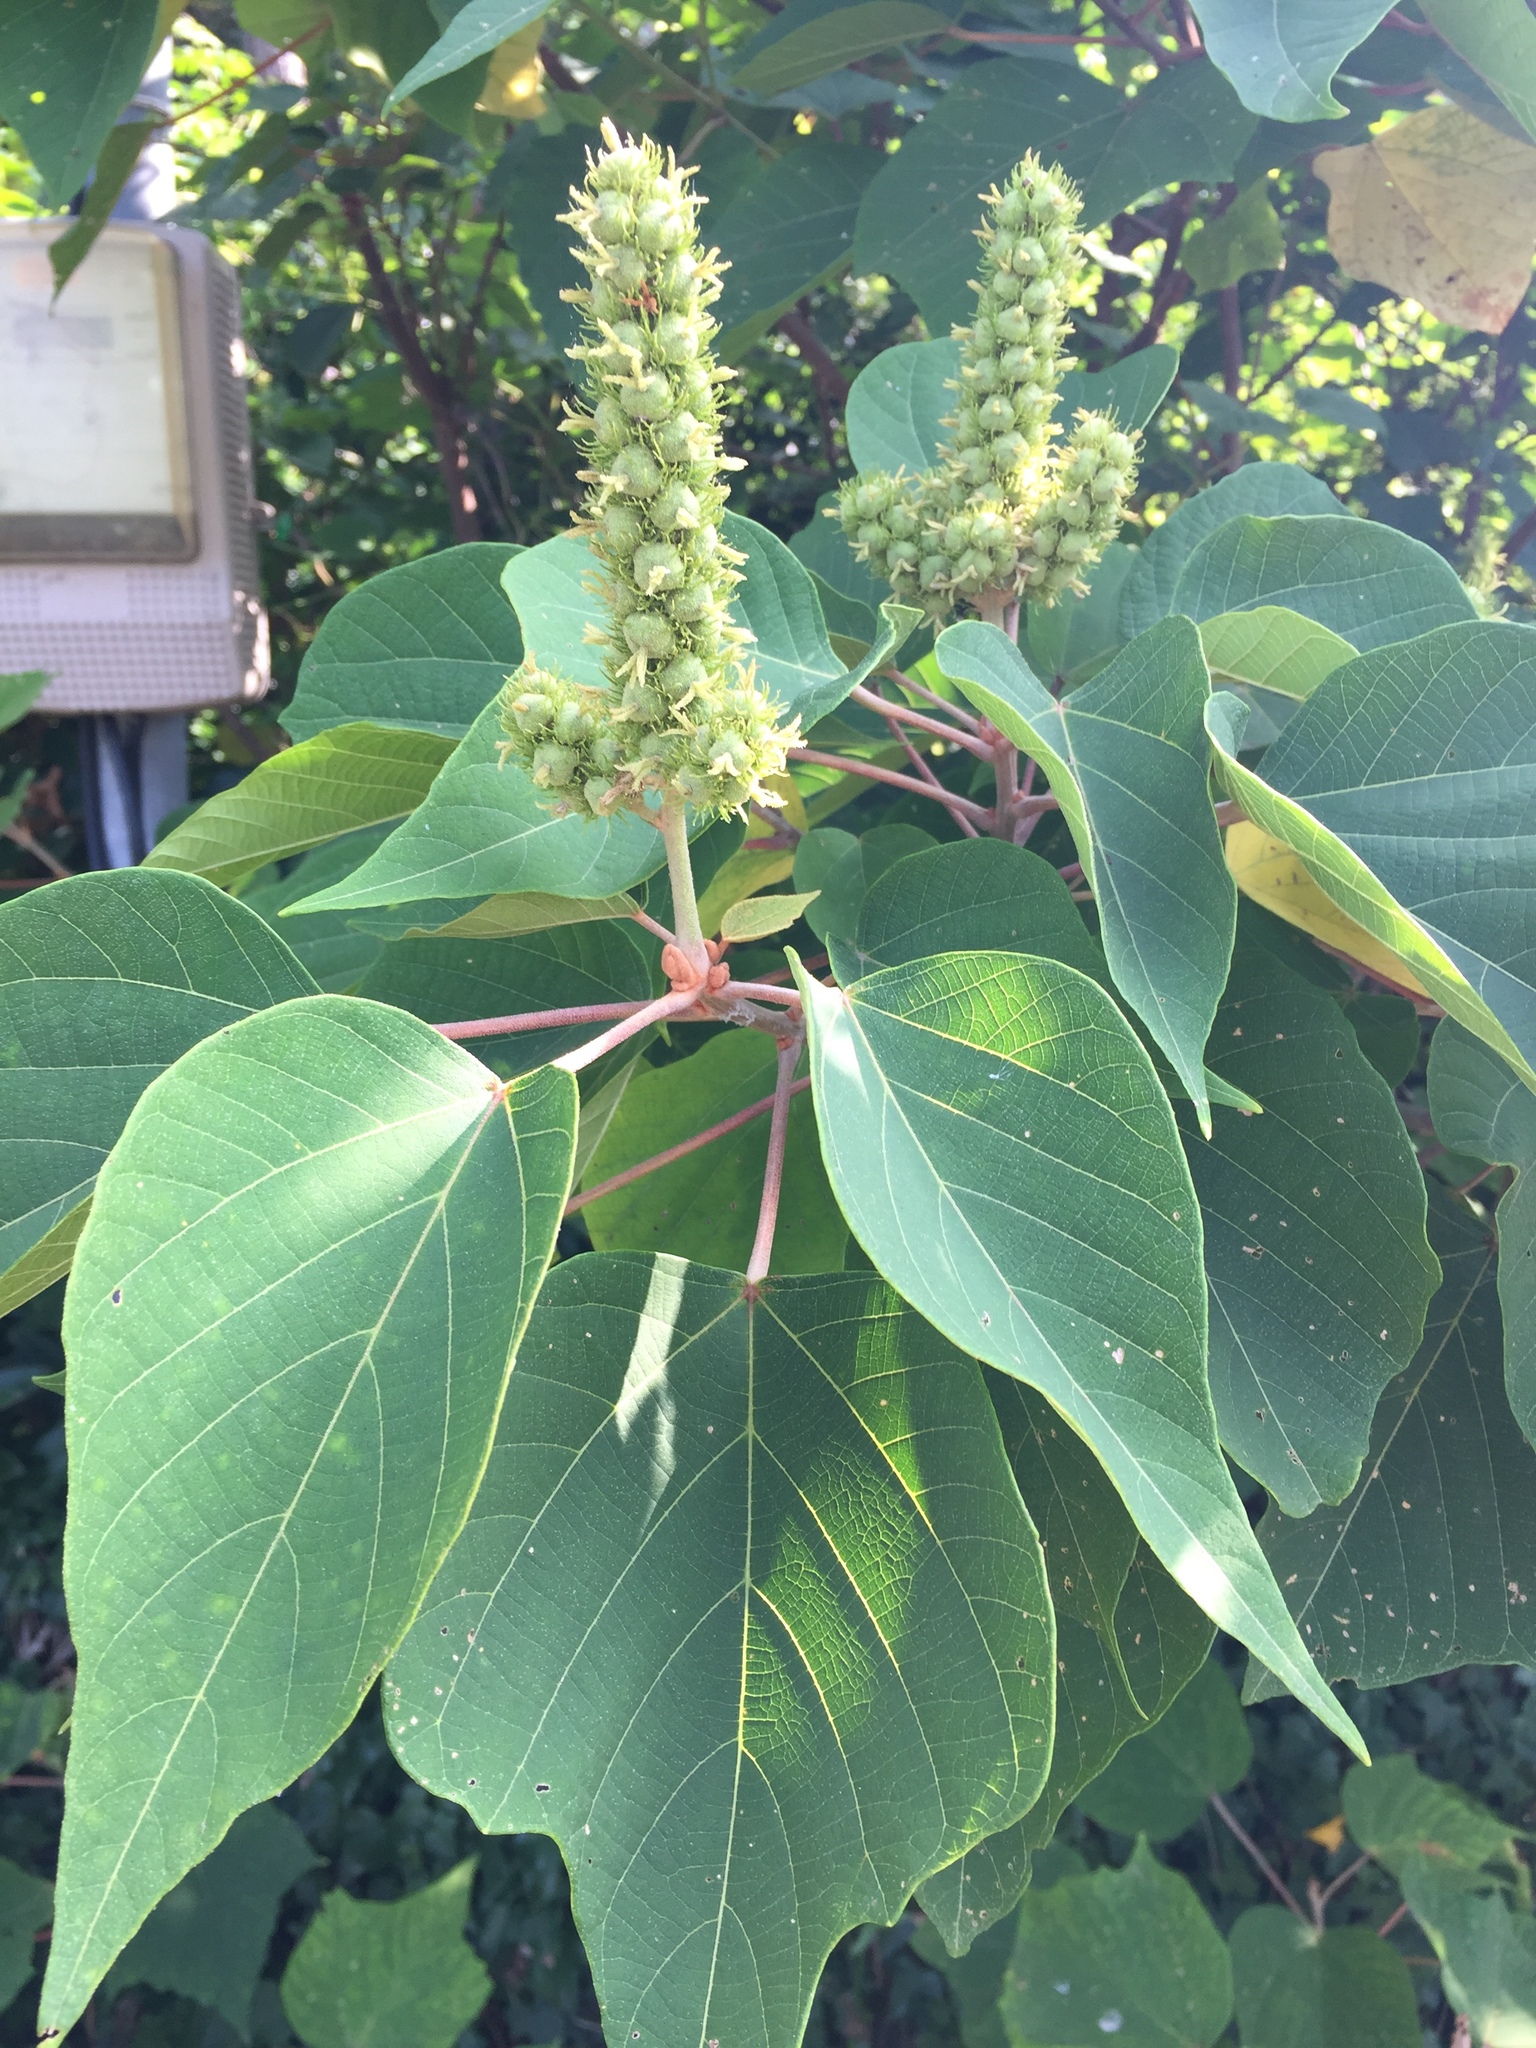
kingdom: Plantae
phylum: Tracheophyta
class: Magnoliopsida
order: Malpighiales
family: Euphorbiaceae
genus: Mallotus
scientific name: Mallotus japonicus
